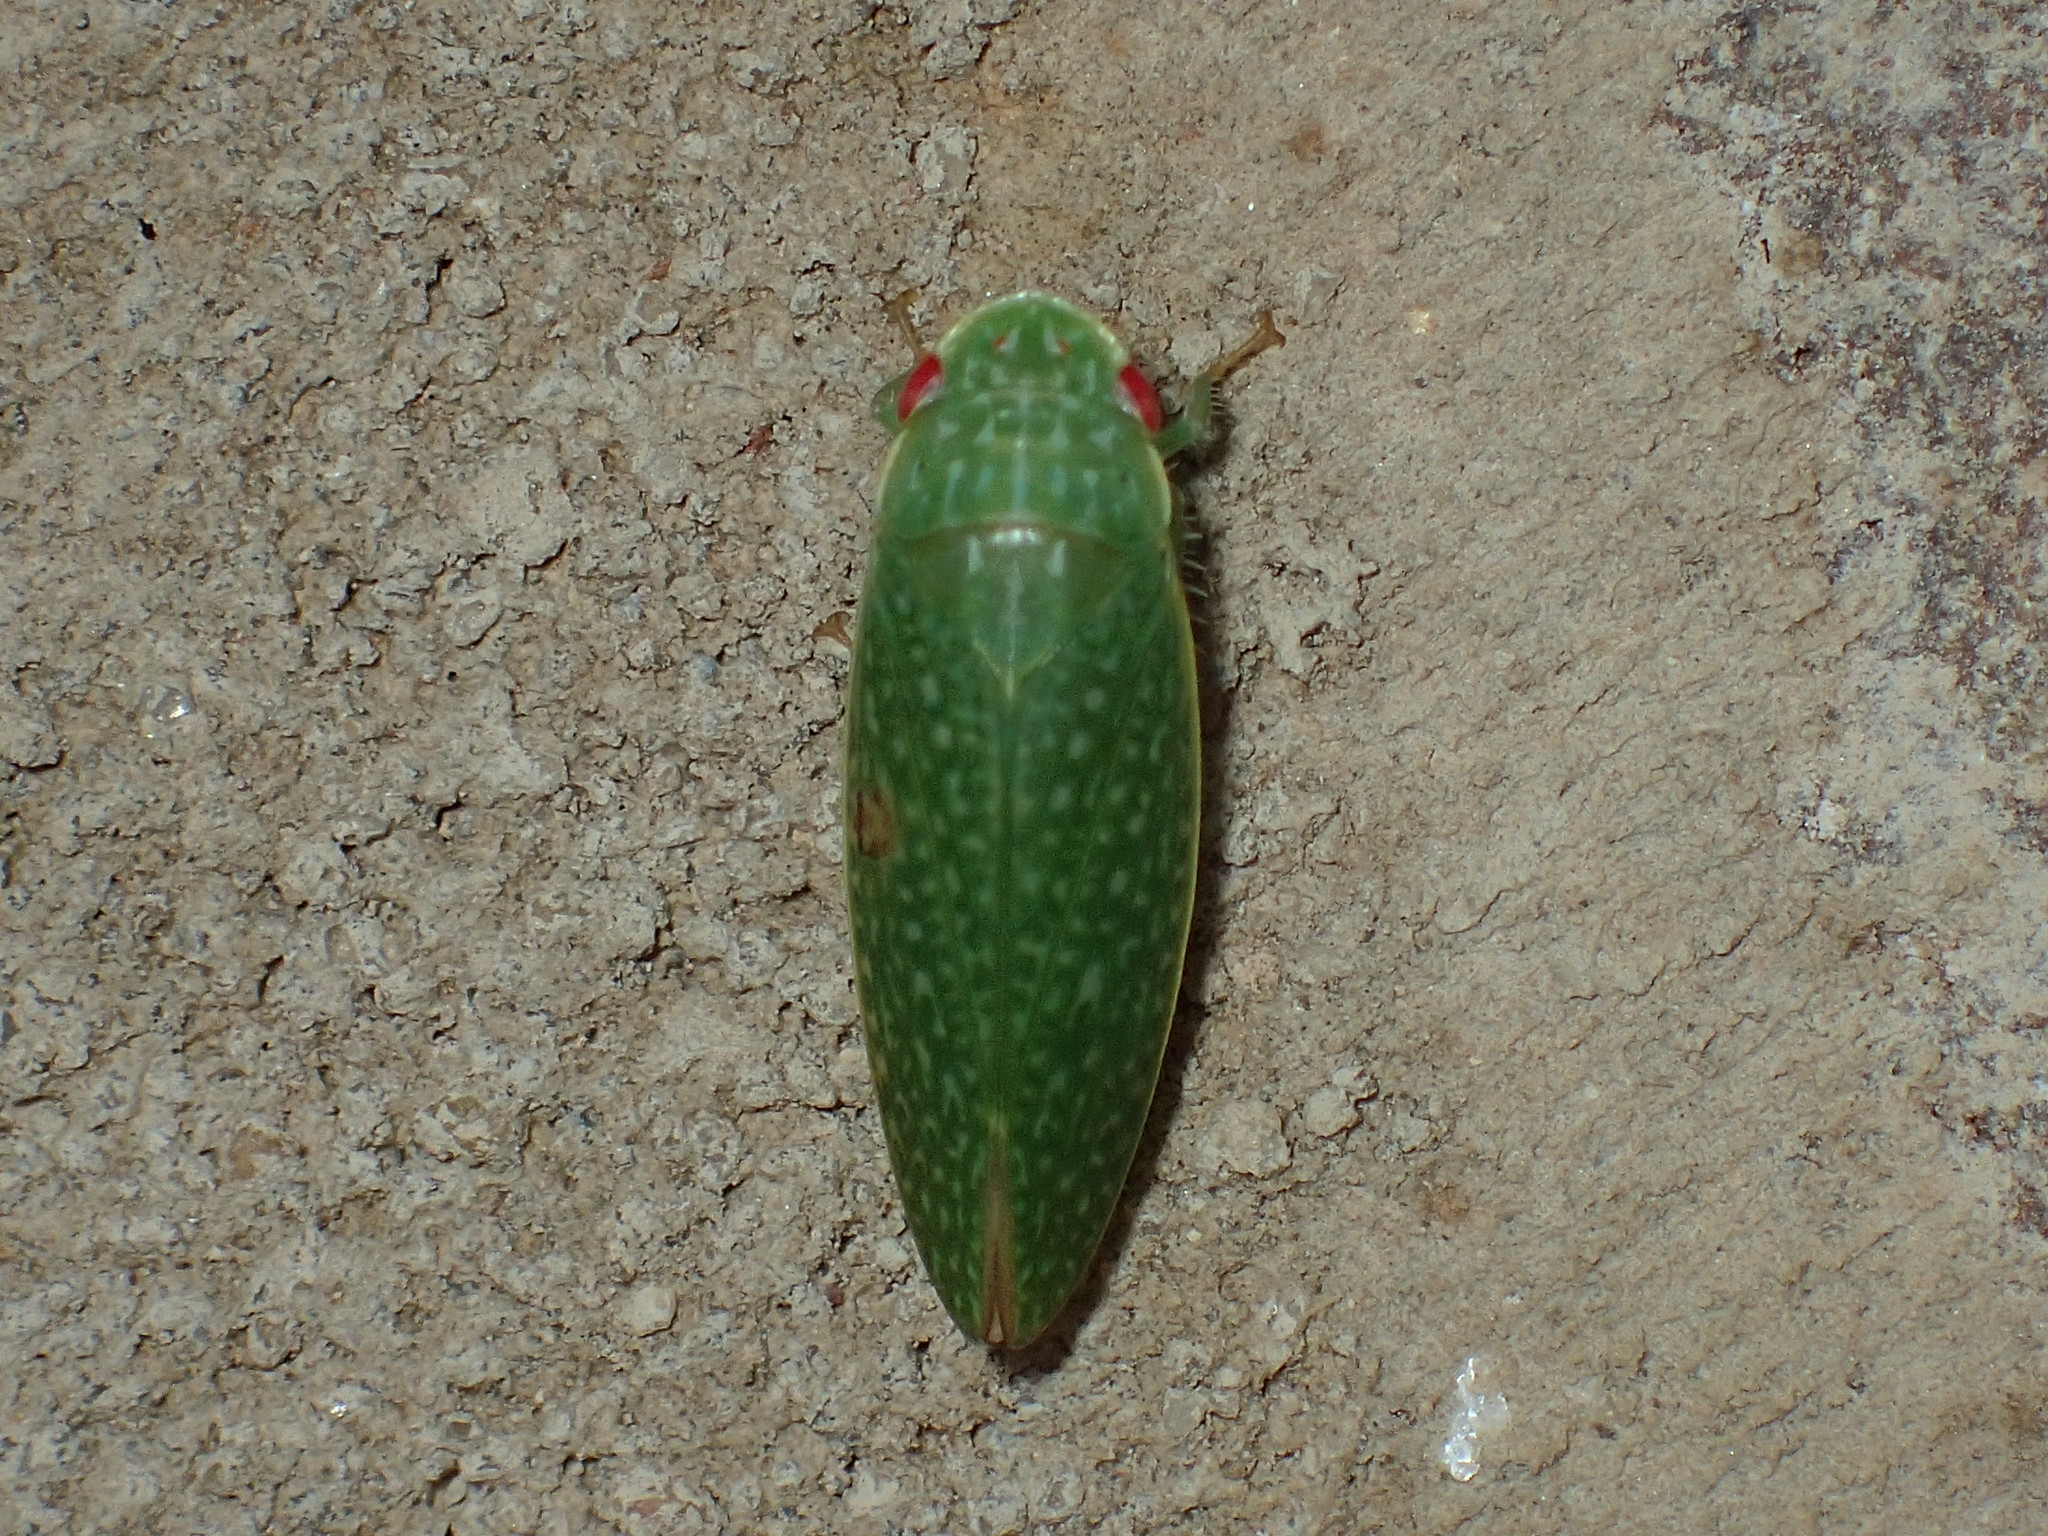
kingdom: Animalia
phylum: Arthropoda
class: Insecta
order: Hemiptera
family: Cicadellidae
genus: Rugosana
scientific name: Rugosana querci
